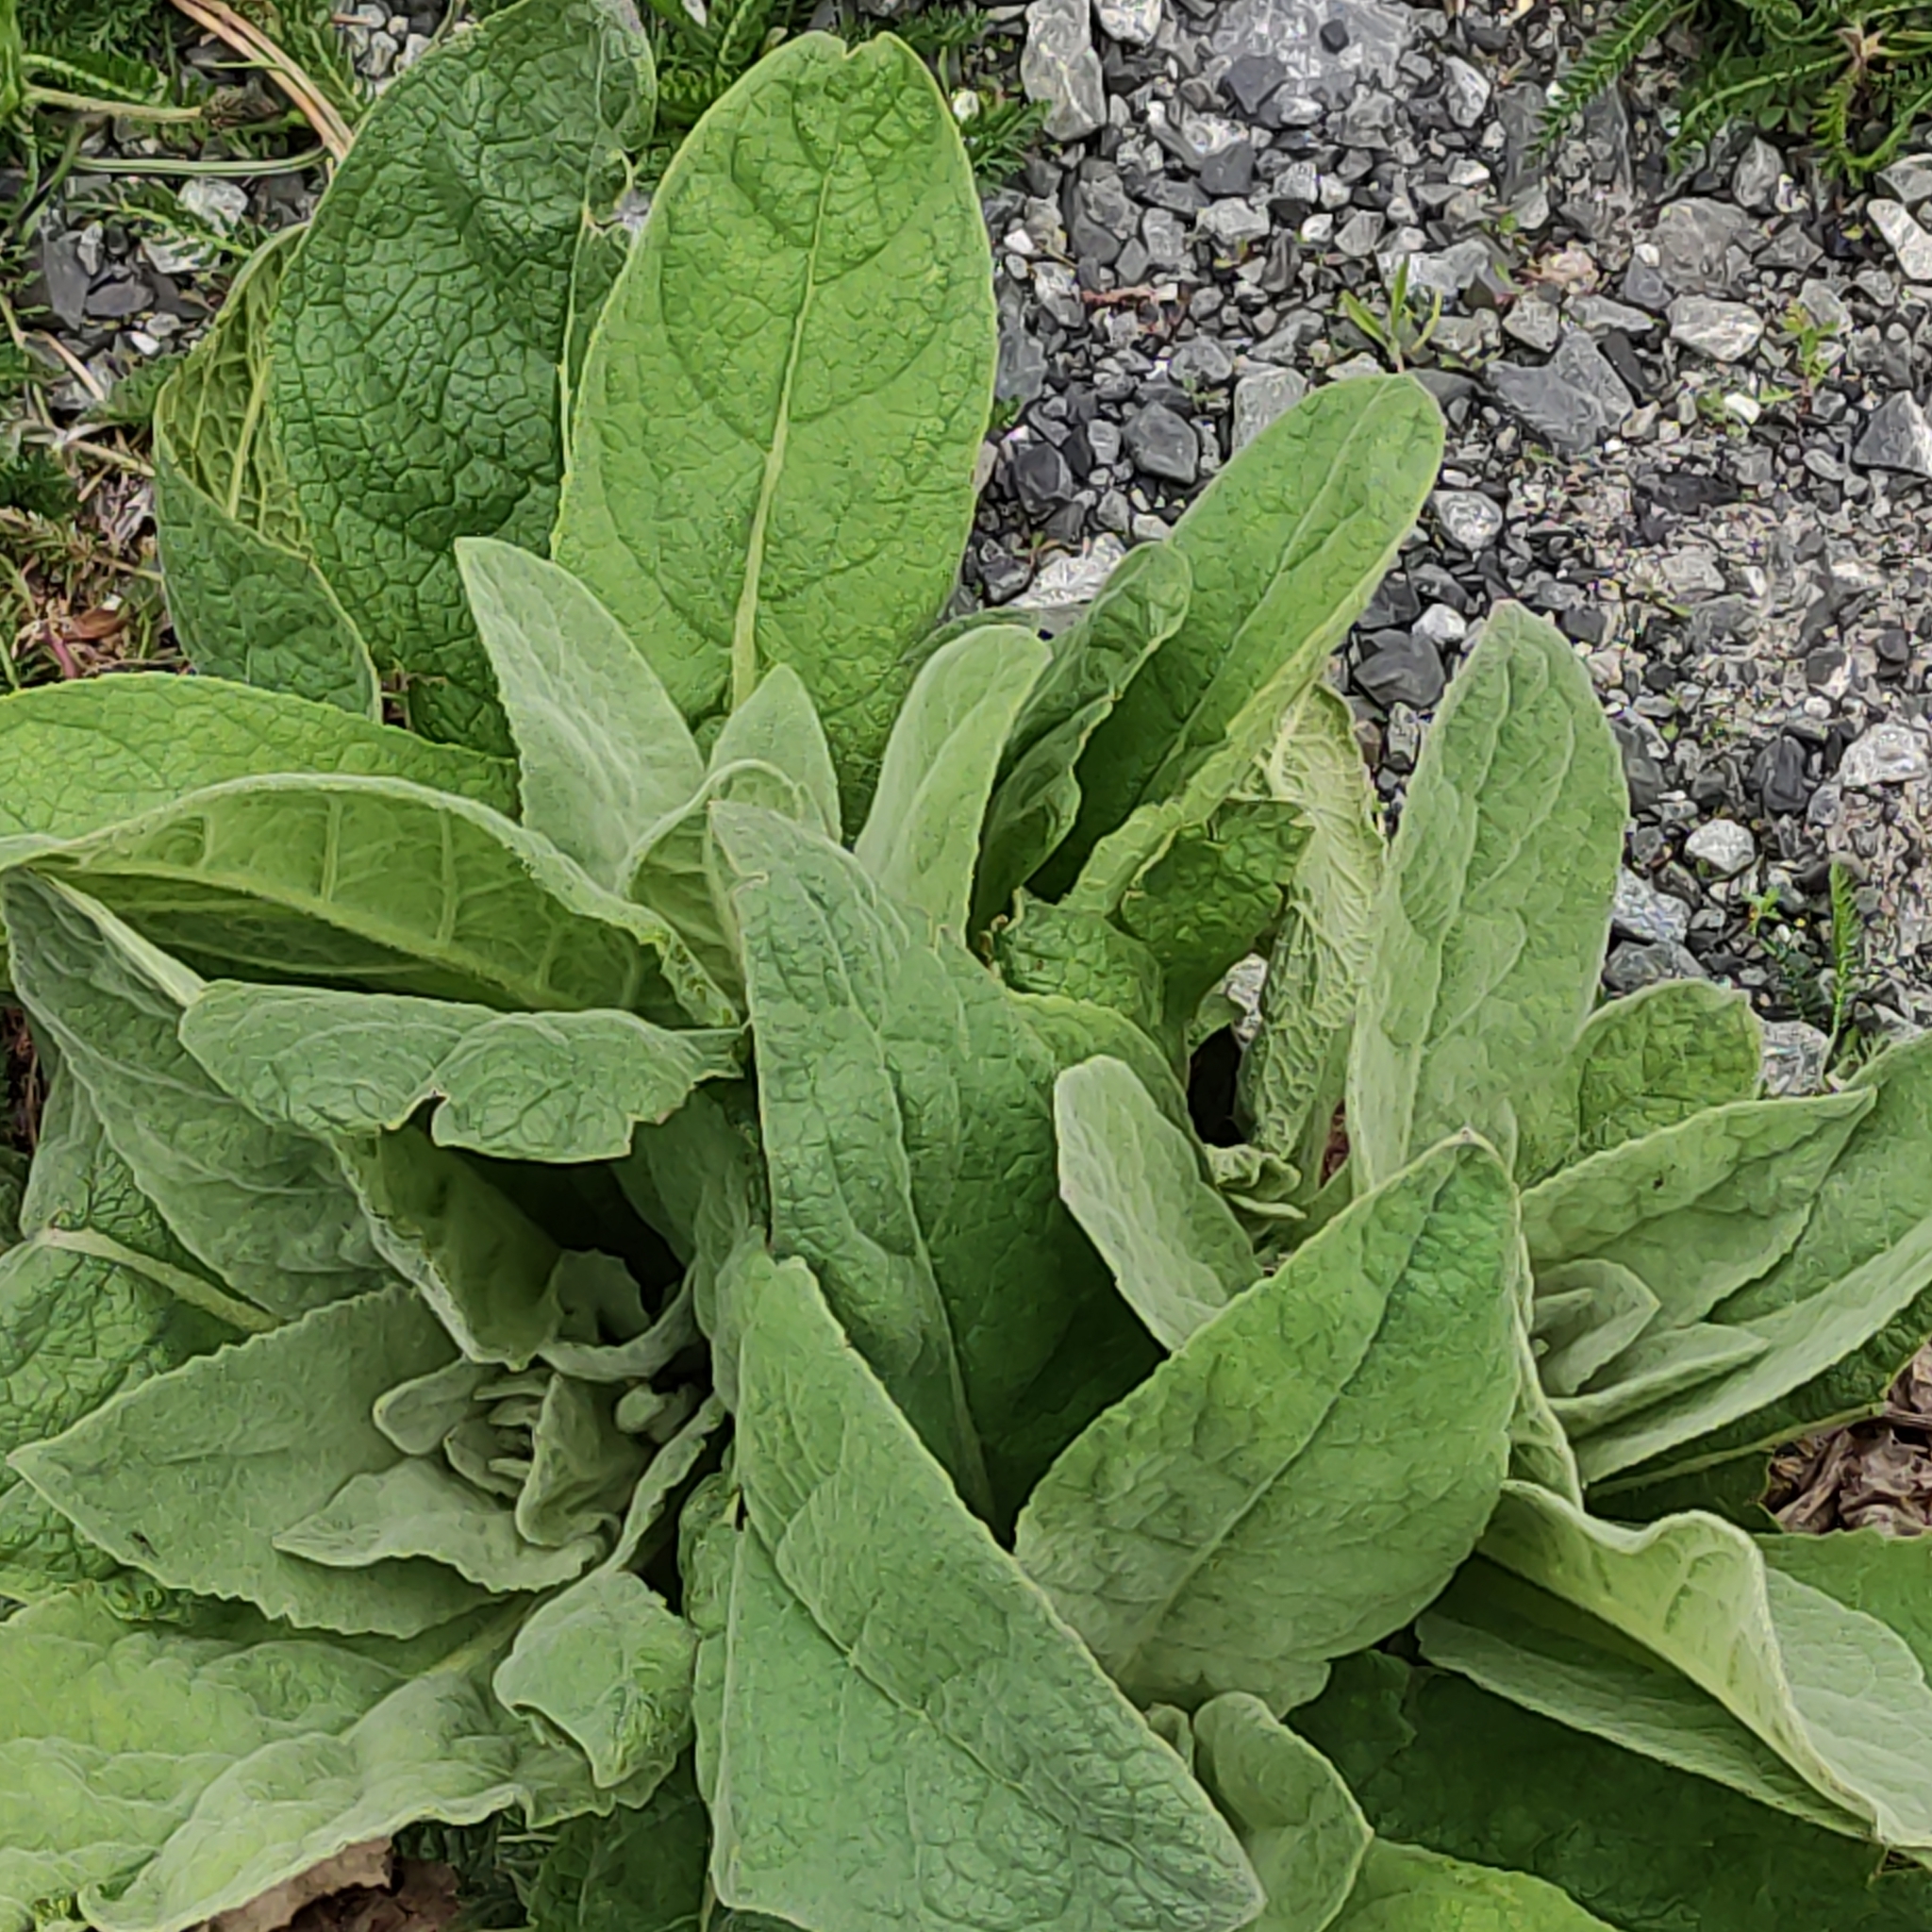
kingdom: Plantae
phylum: Tracheophyta
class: Magnoliopsida
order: Lamiales
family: Scrophulariaceae
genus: Verbascum
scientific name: Verbascum thapsus
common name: Common mullein
